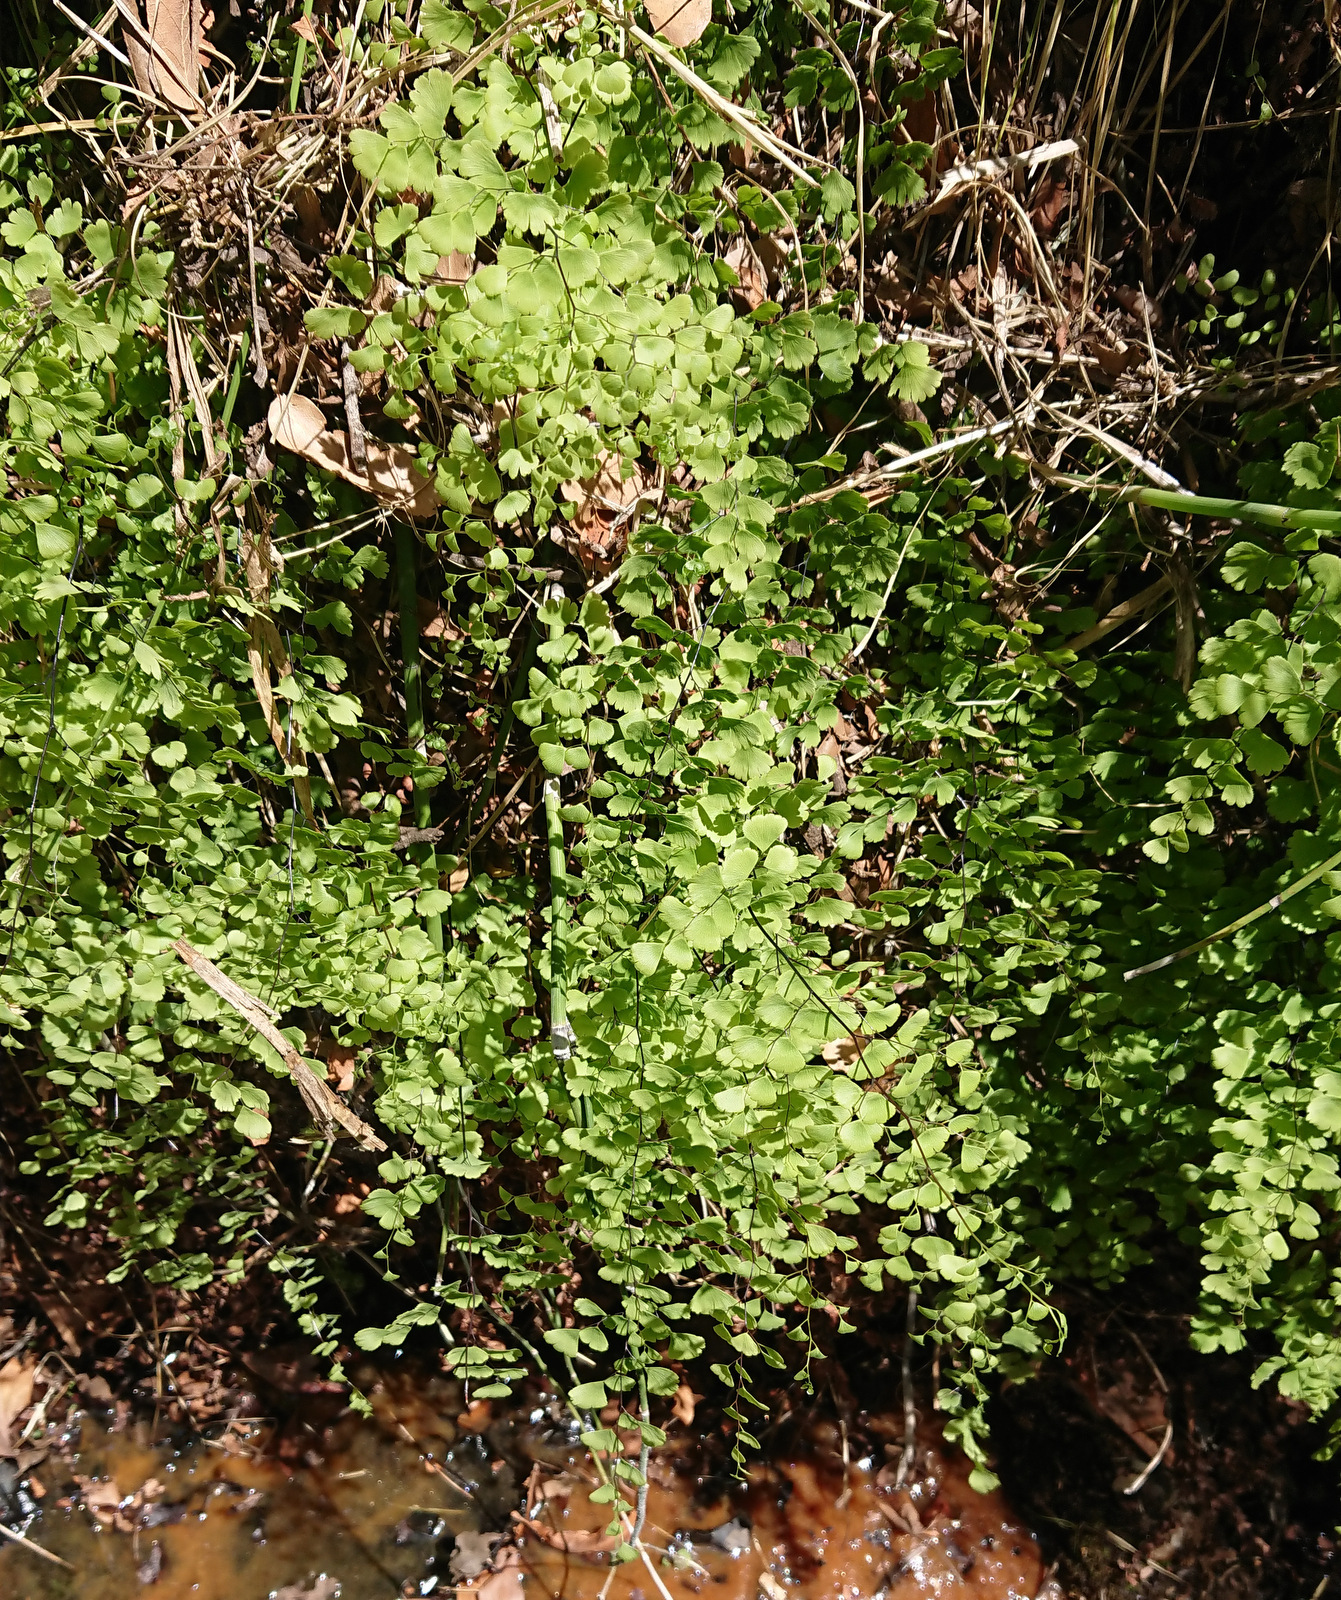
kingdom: Plantae
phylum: Tracheophyta
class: Polypodiopsida
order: Polypodiales
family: Pteridaceae
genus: Adiantum
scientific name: Adiantum capillus-veneris
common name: Maidenhair fern
